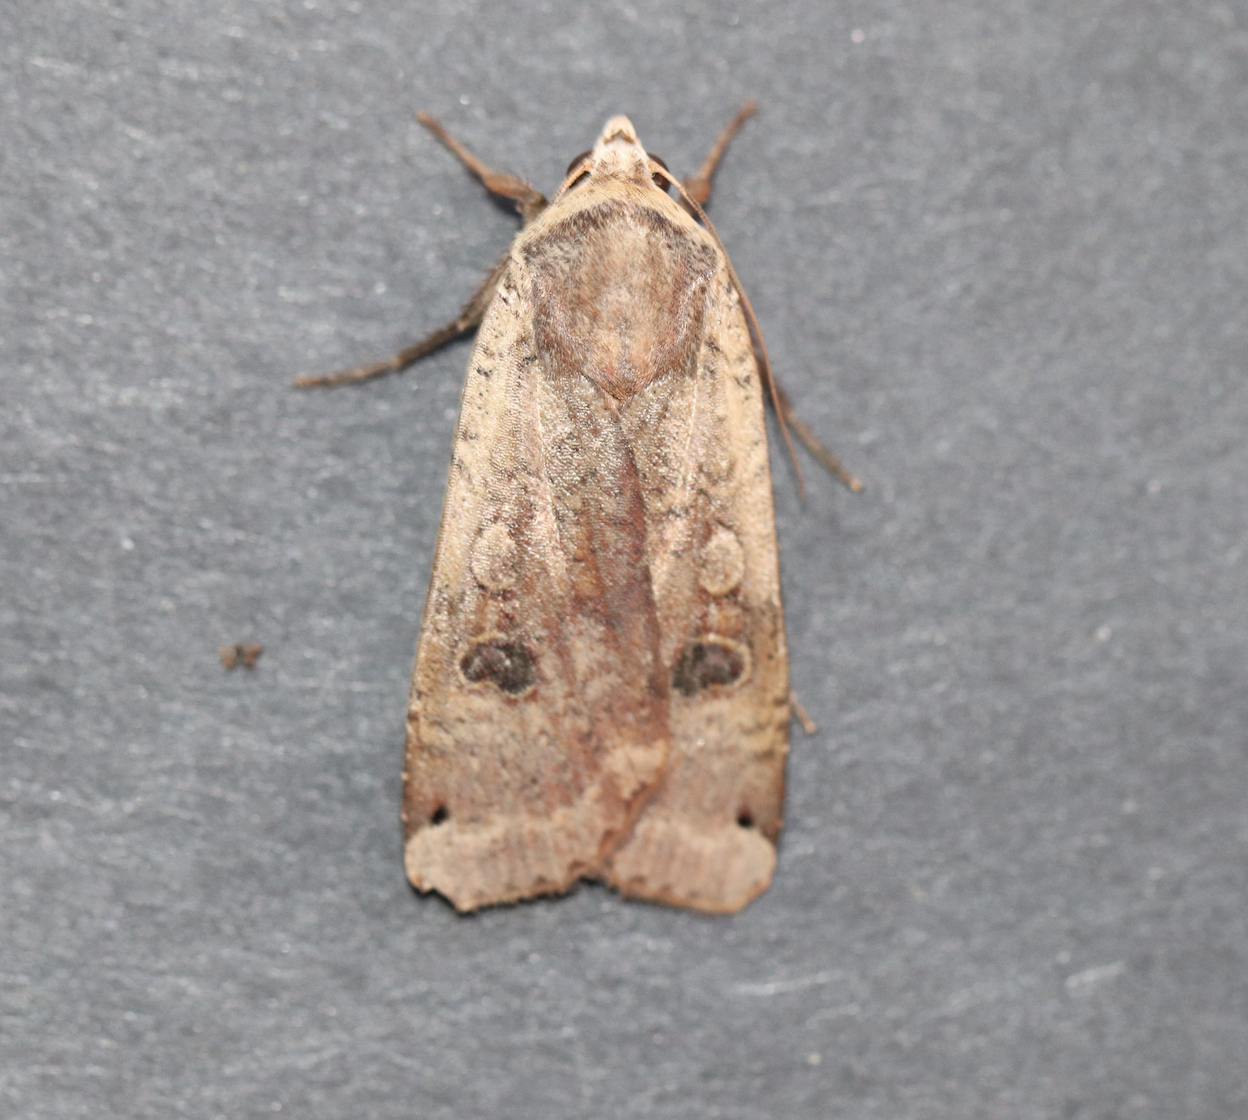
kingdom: Animalia
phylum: Arthropoda
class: Insecta
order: Lepidoptera
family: Noctuidae
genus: Noctua
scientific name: Noctua pronuba
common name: Large yellow underwing
